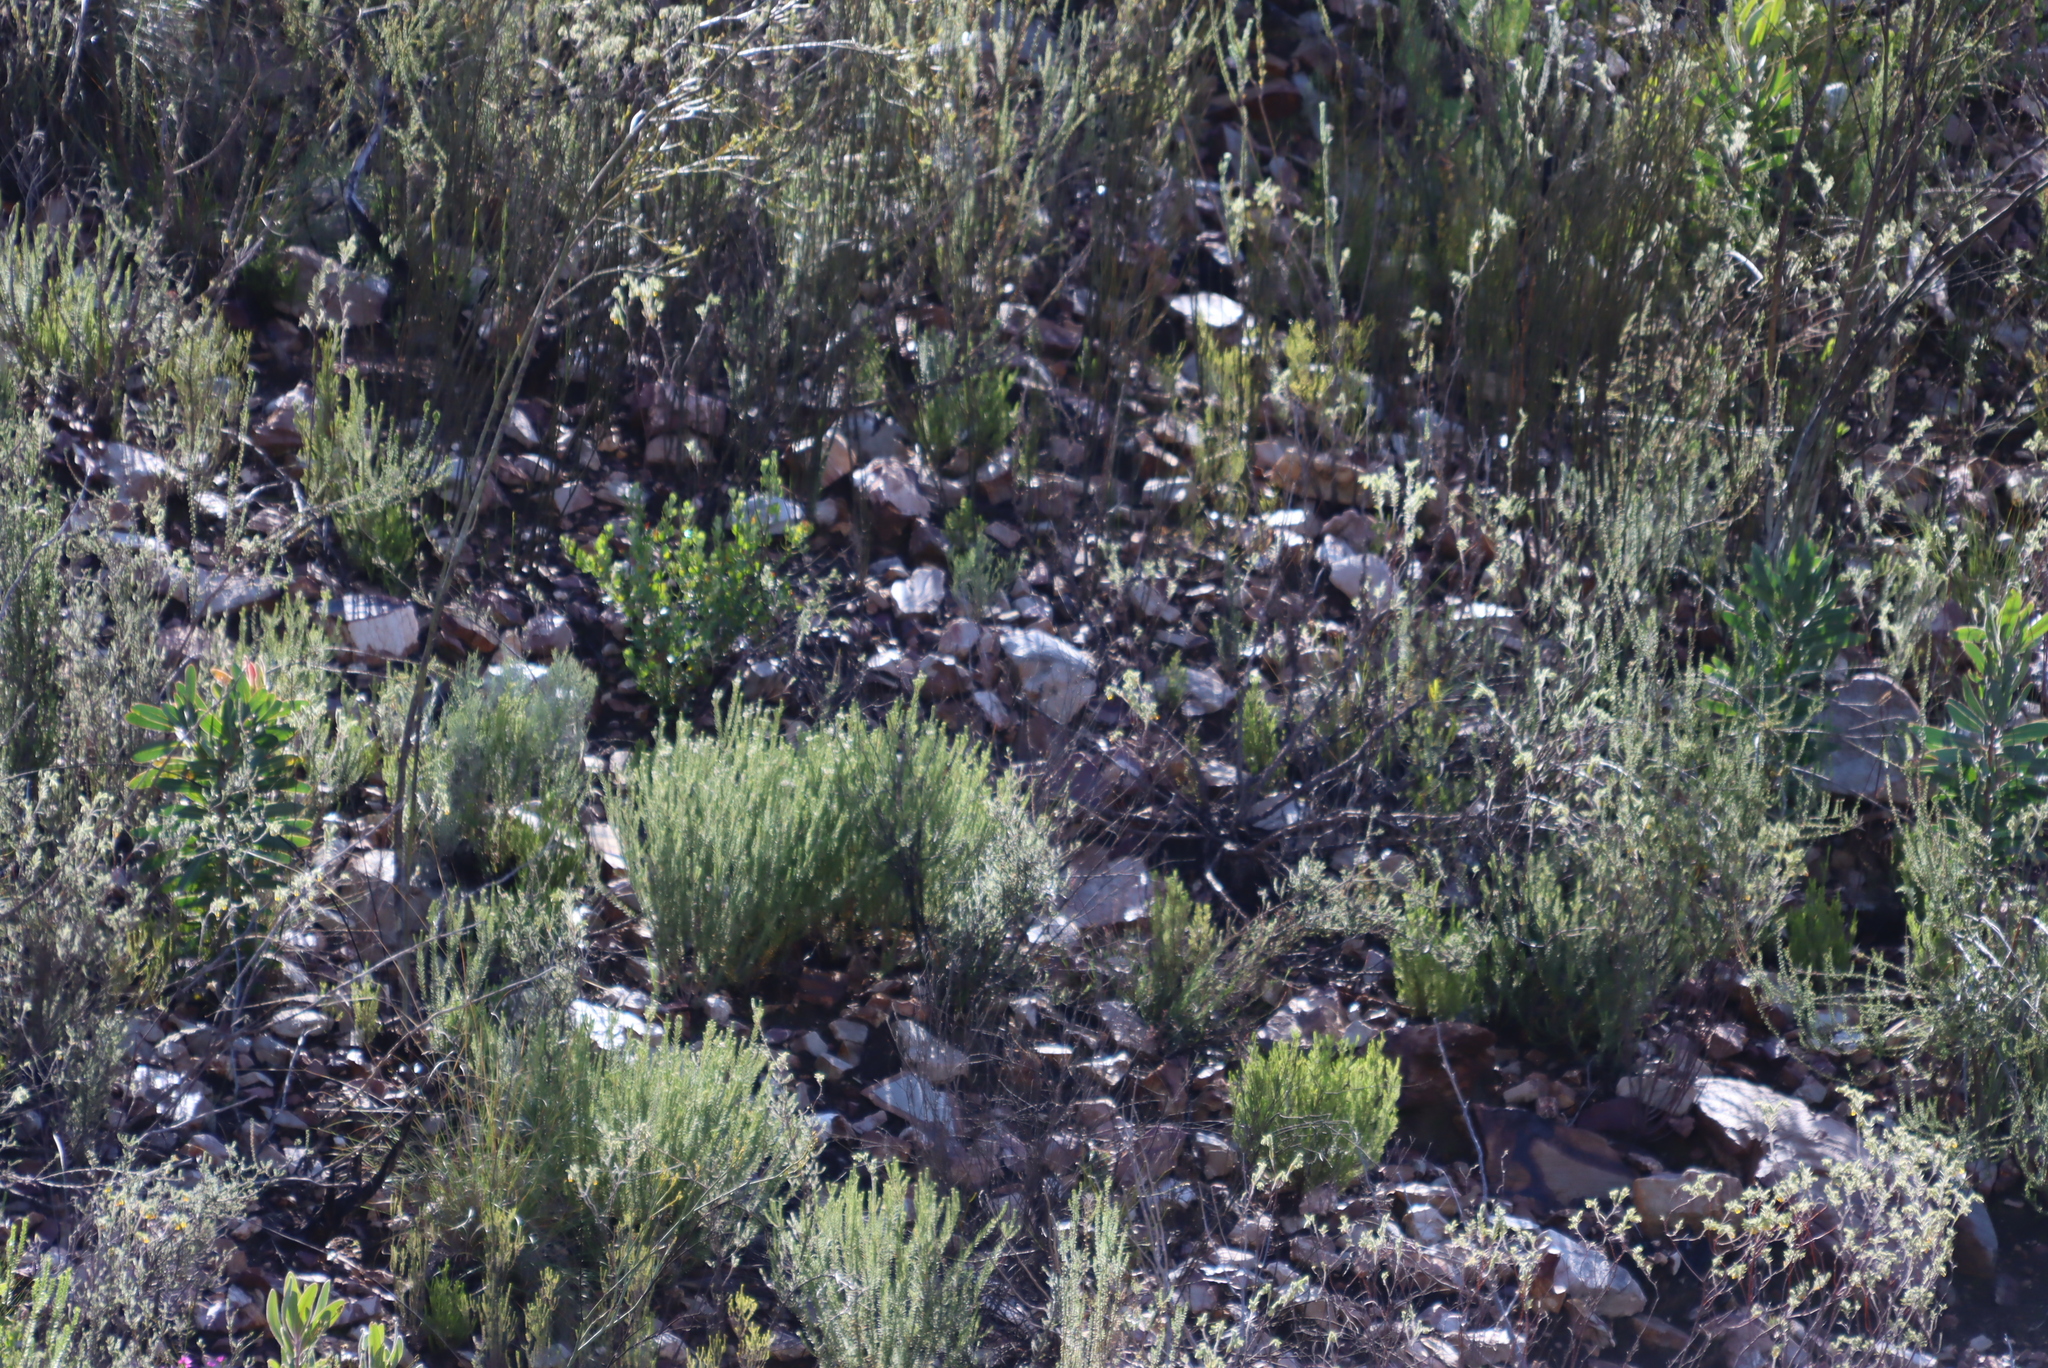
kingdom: Plantae
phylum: Tracheophyta
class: Magnoliopsida
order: Proteales
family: Proteaceae
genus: Leucadendron
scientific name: Leucadendron salignum
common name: Common sunshine conebush
